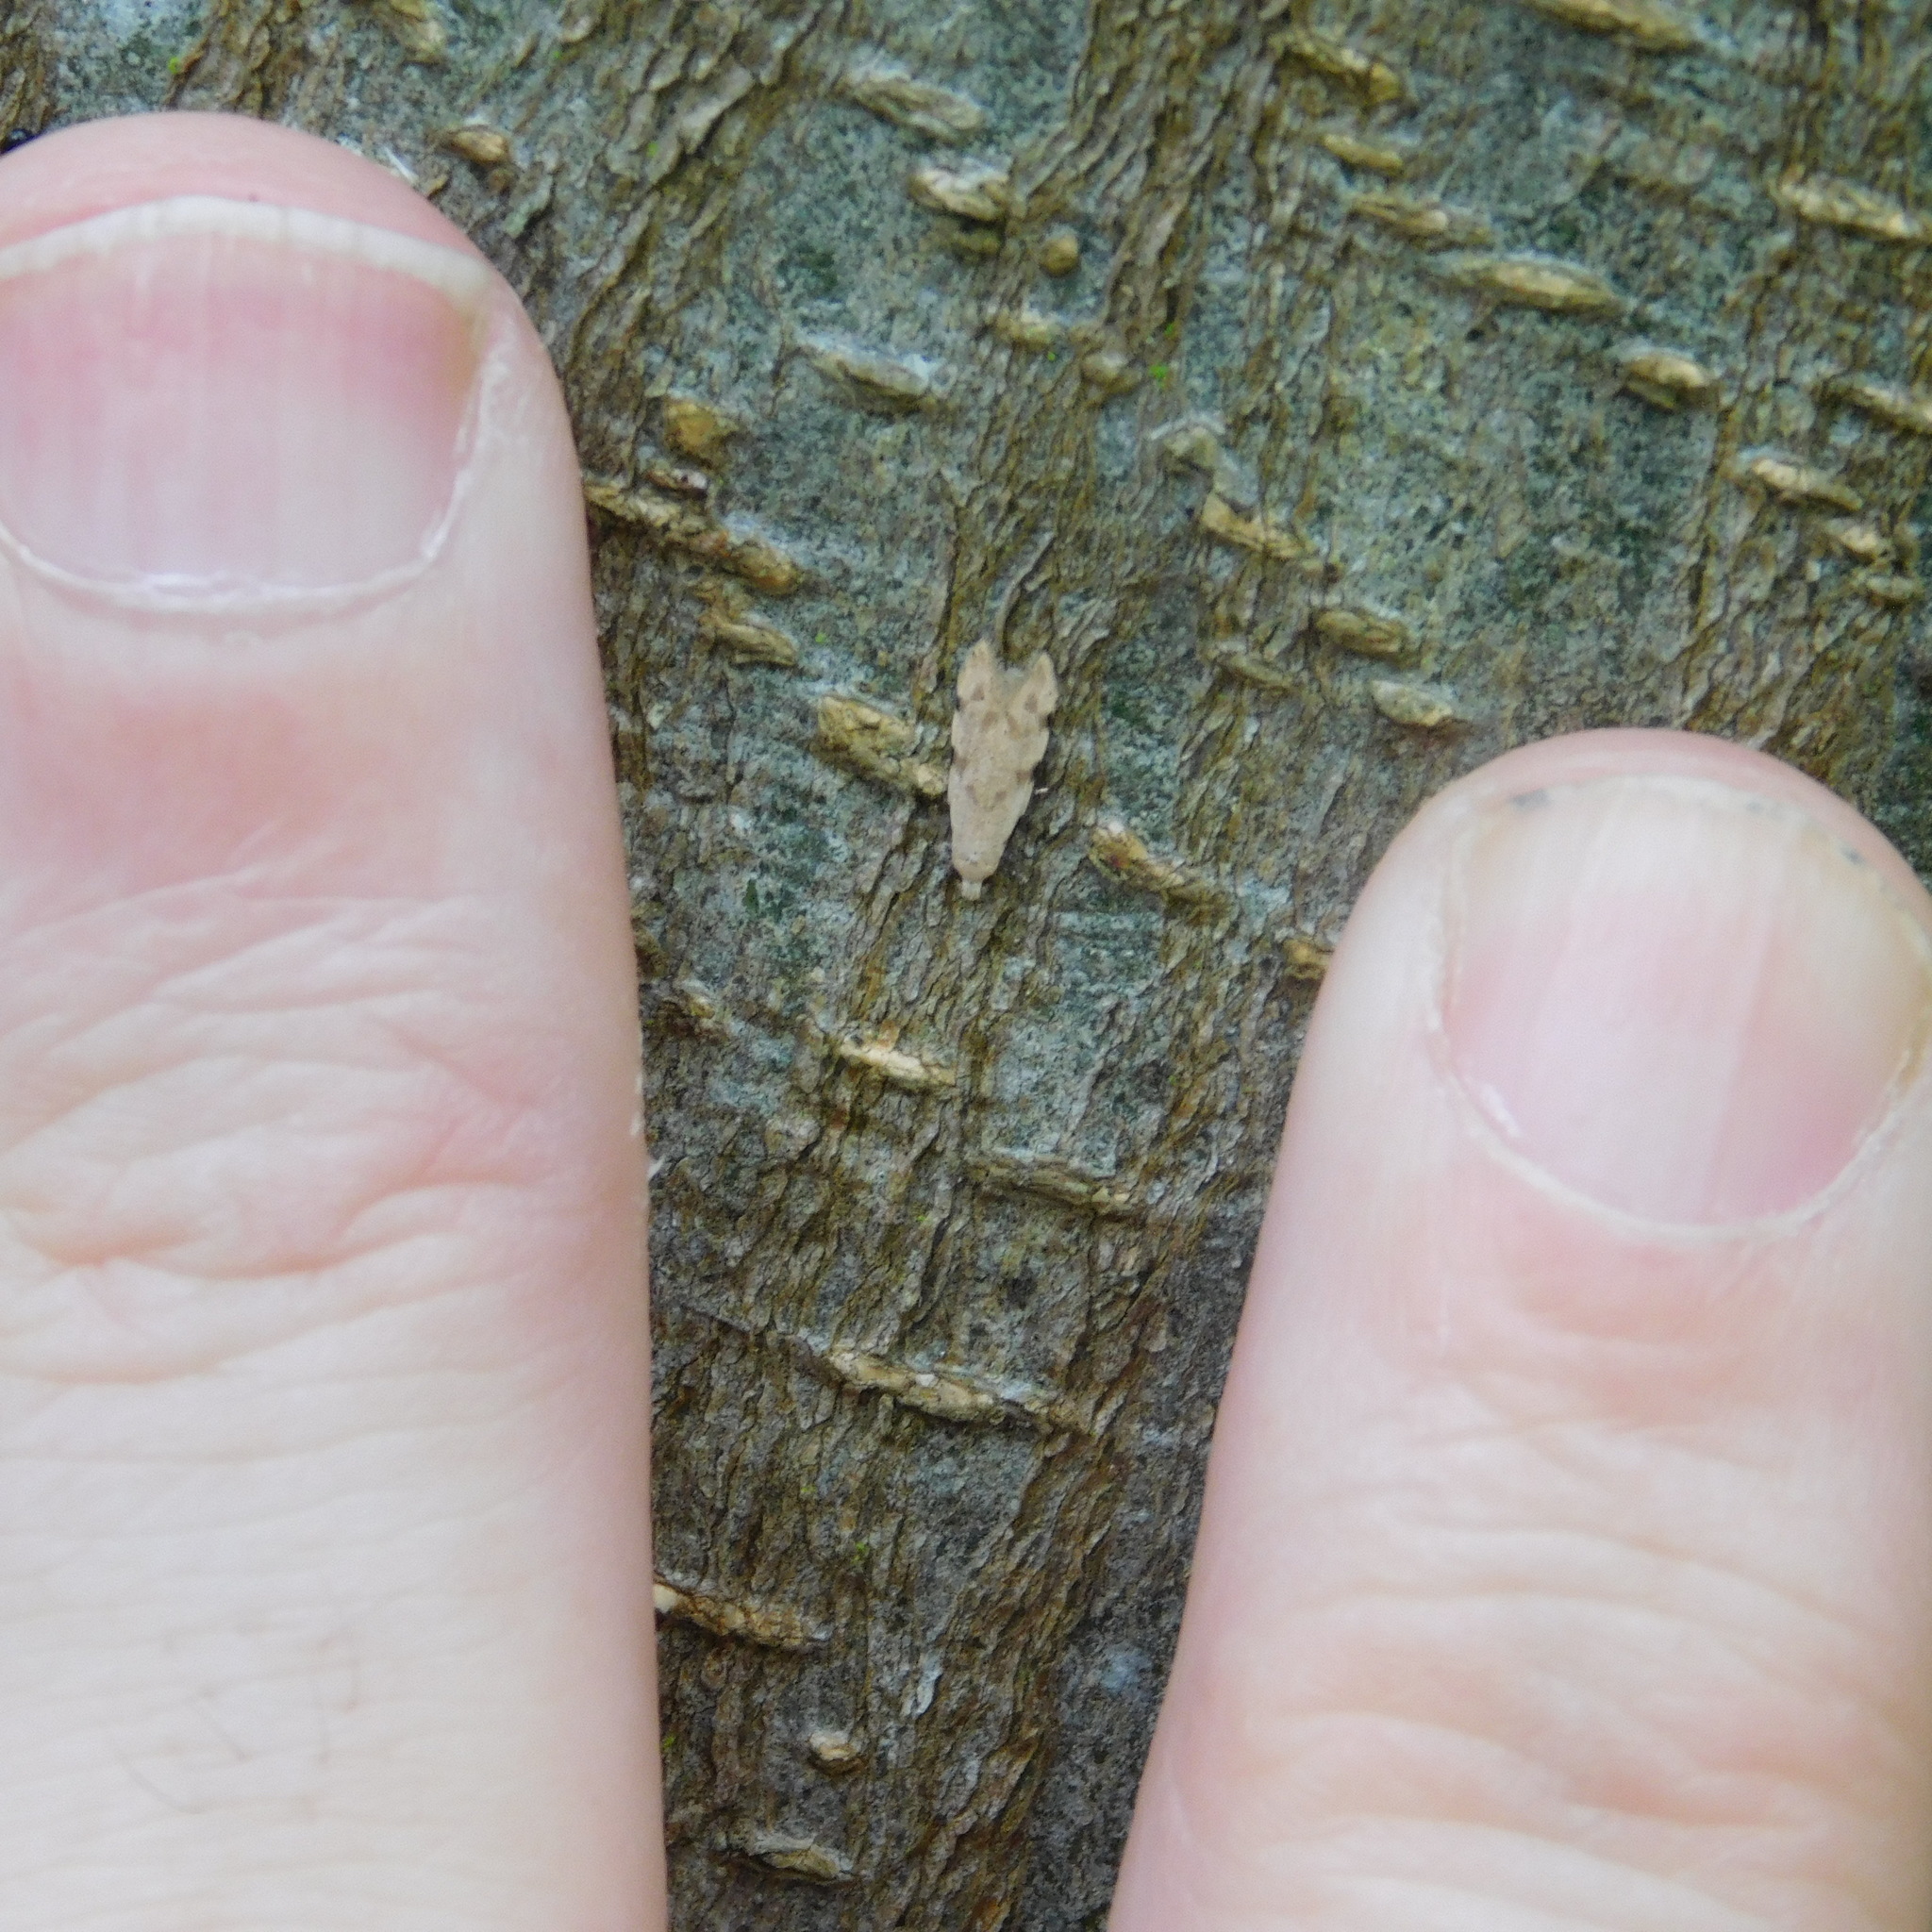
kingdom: Animalia
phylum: Arthropoda
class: Insecta
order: Lepidoptera
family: Tineidae
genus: Endophthora
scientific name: Endophthora omogramma
